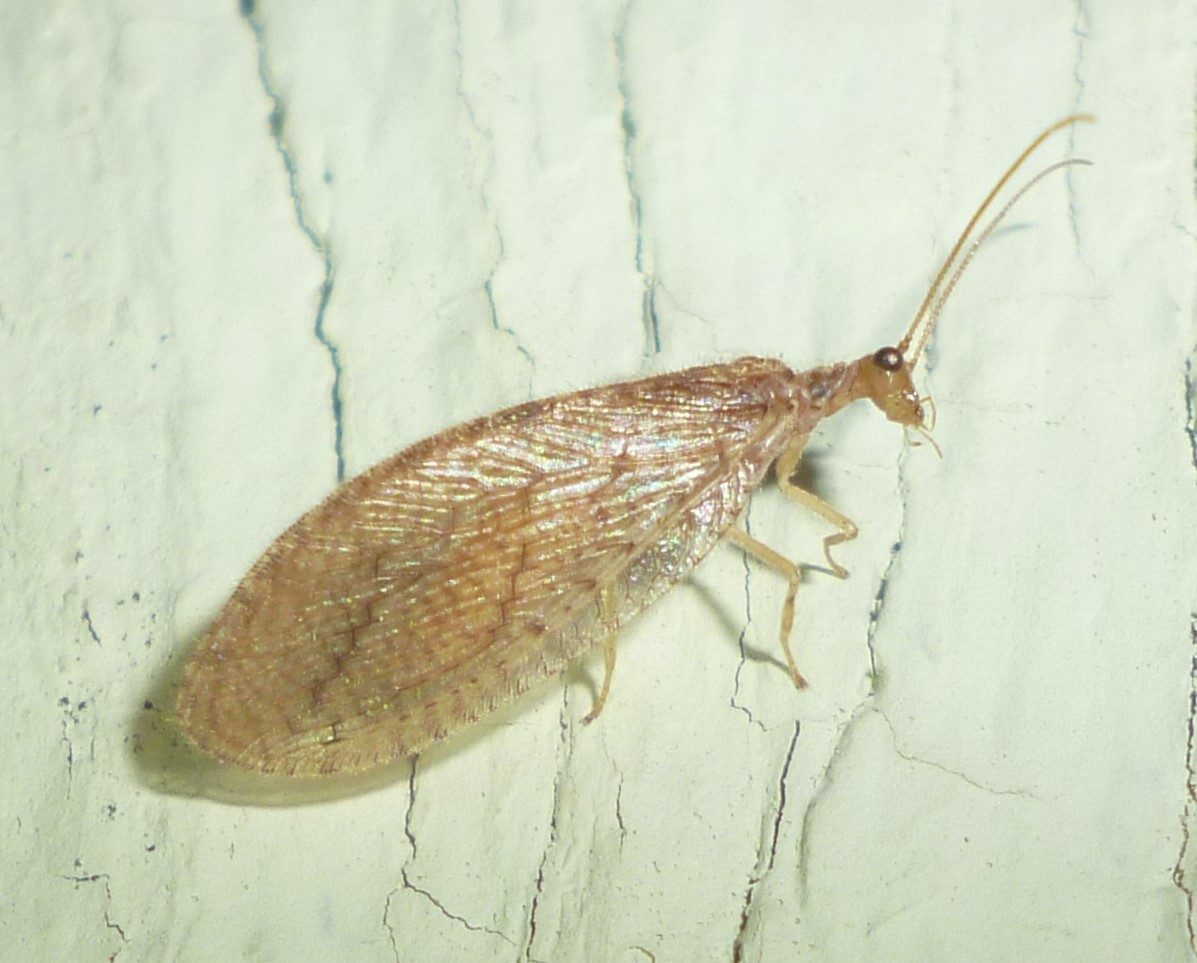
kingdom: Animalia
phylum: Arthropoda
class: Insecta
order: Neuroptera
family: Hemerobiidae
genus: Micromus
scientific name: Micromus posticus
